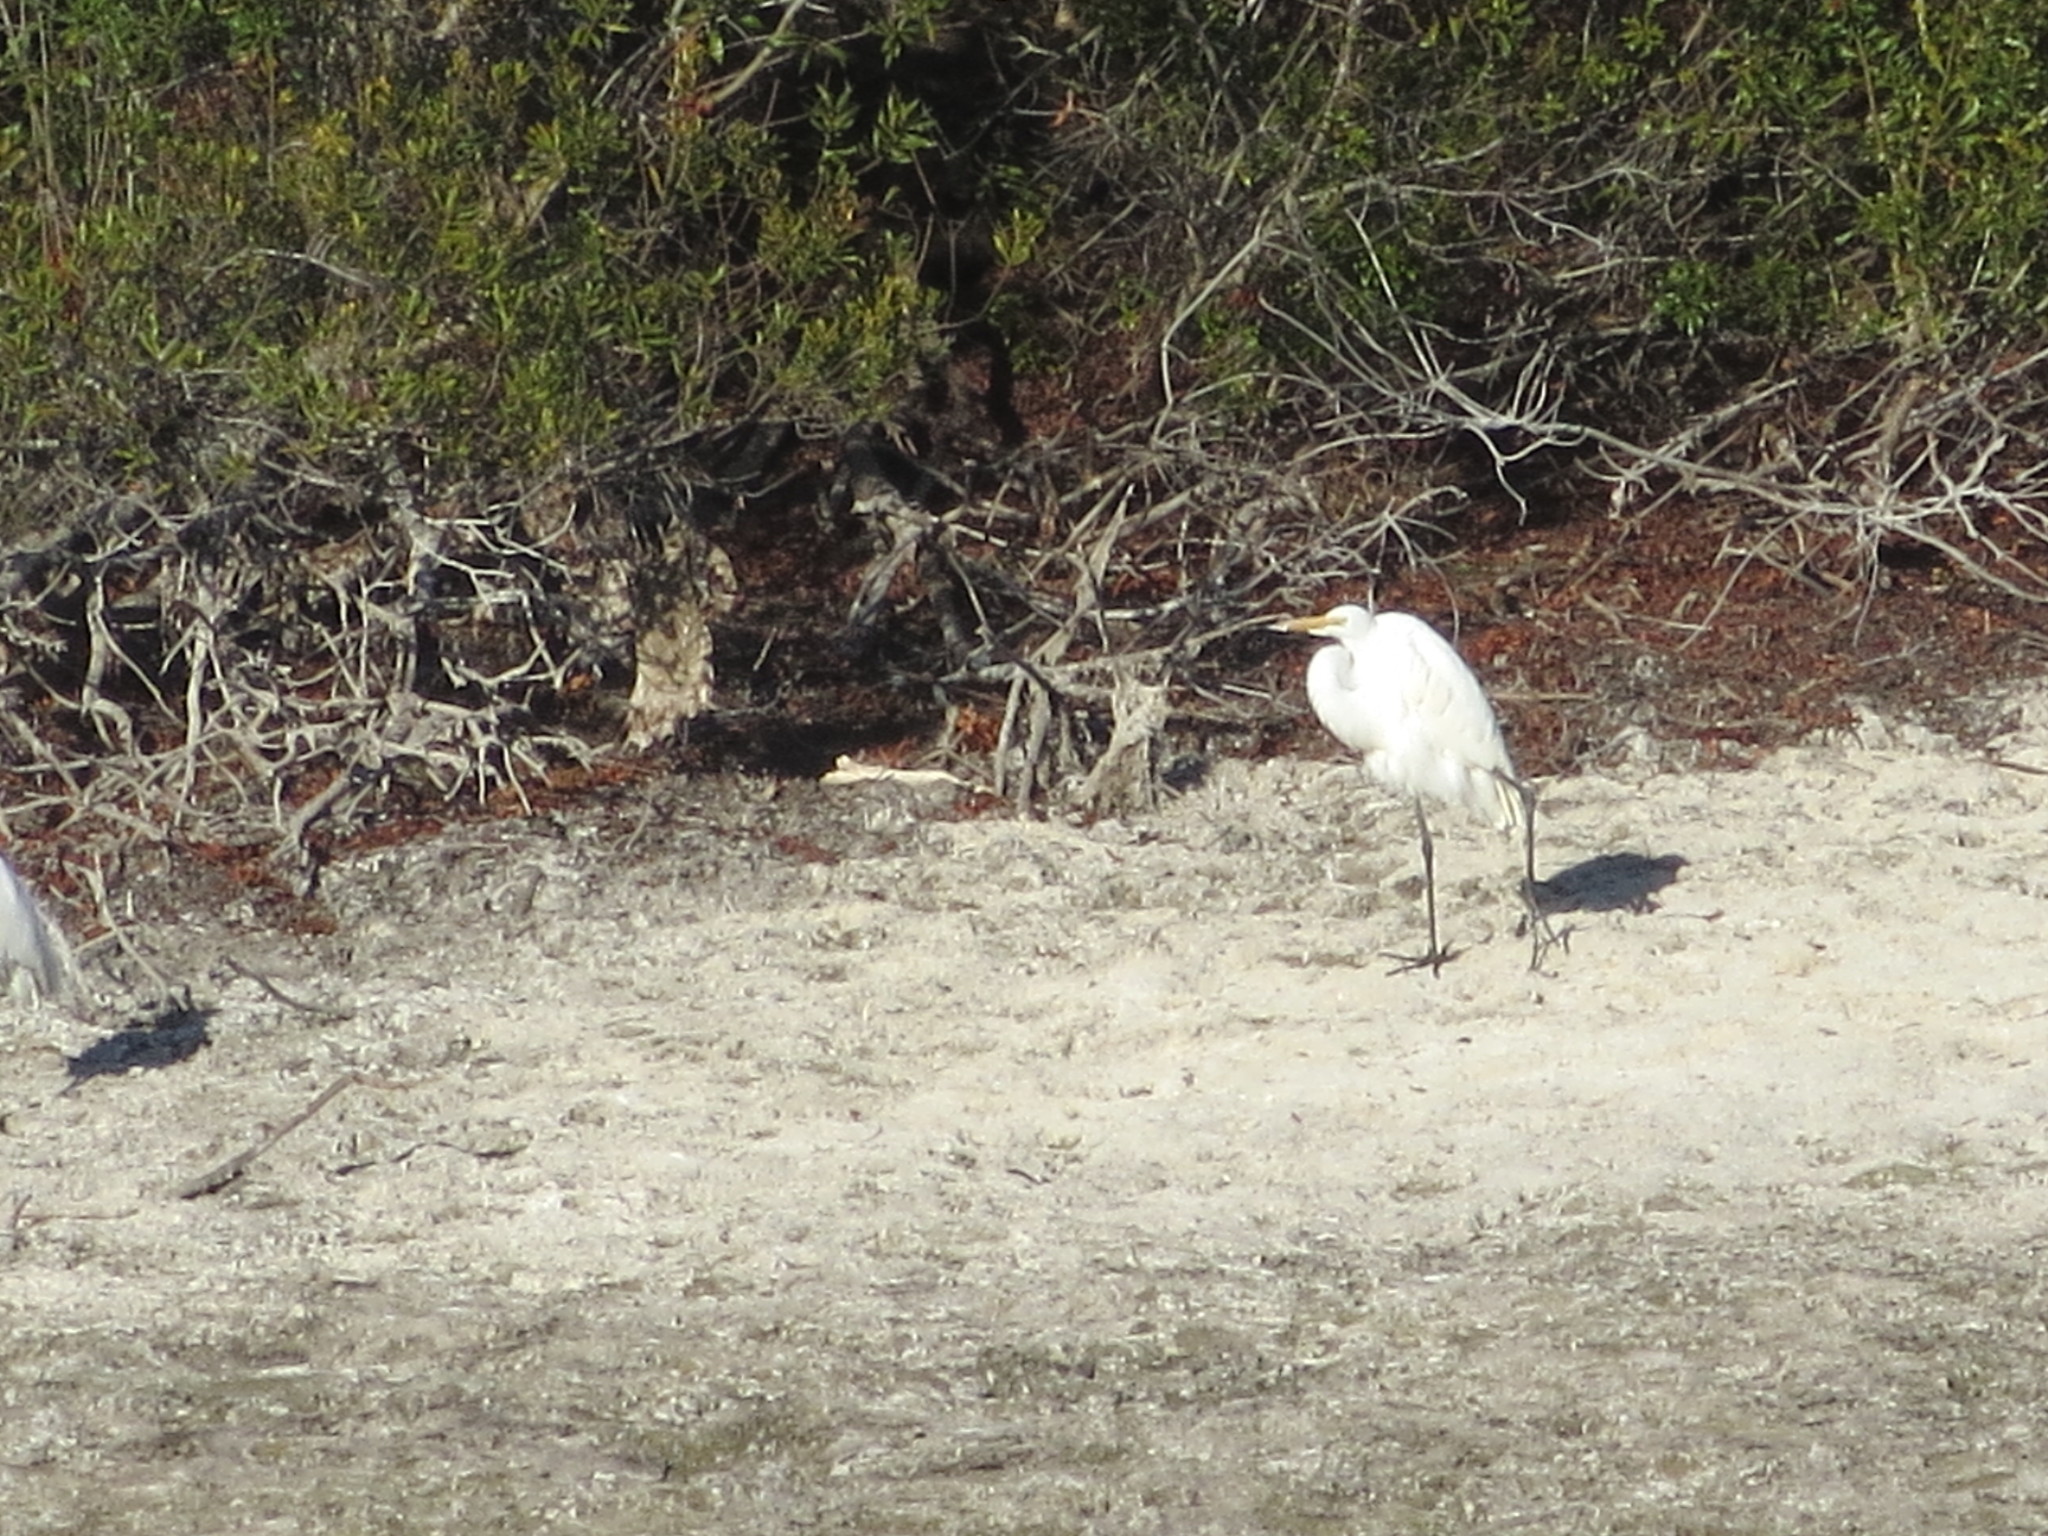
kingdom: Animalia
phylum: Chordata
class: Aves
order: Pelecaniformes
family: Ardeidae
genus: Ardea
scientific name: Ardea alba
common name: Great egret
